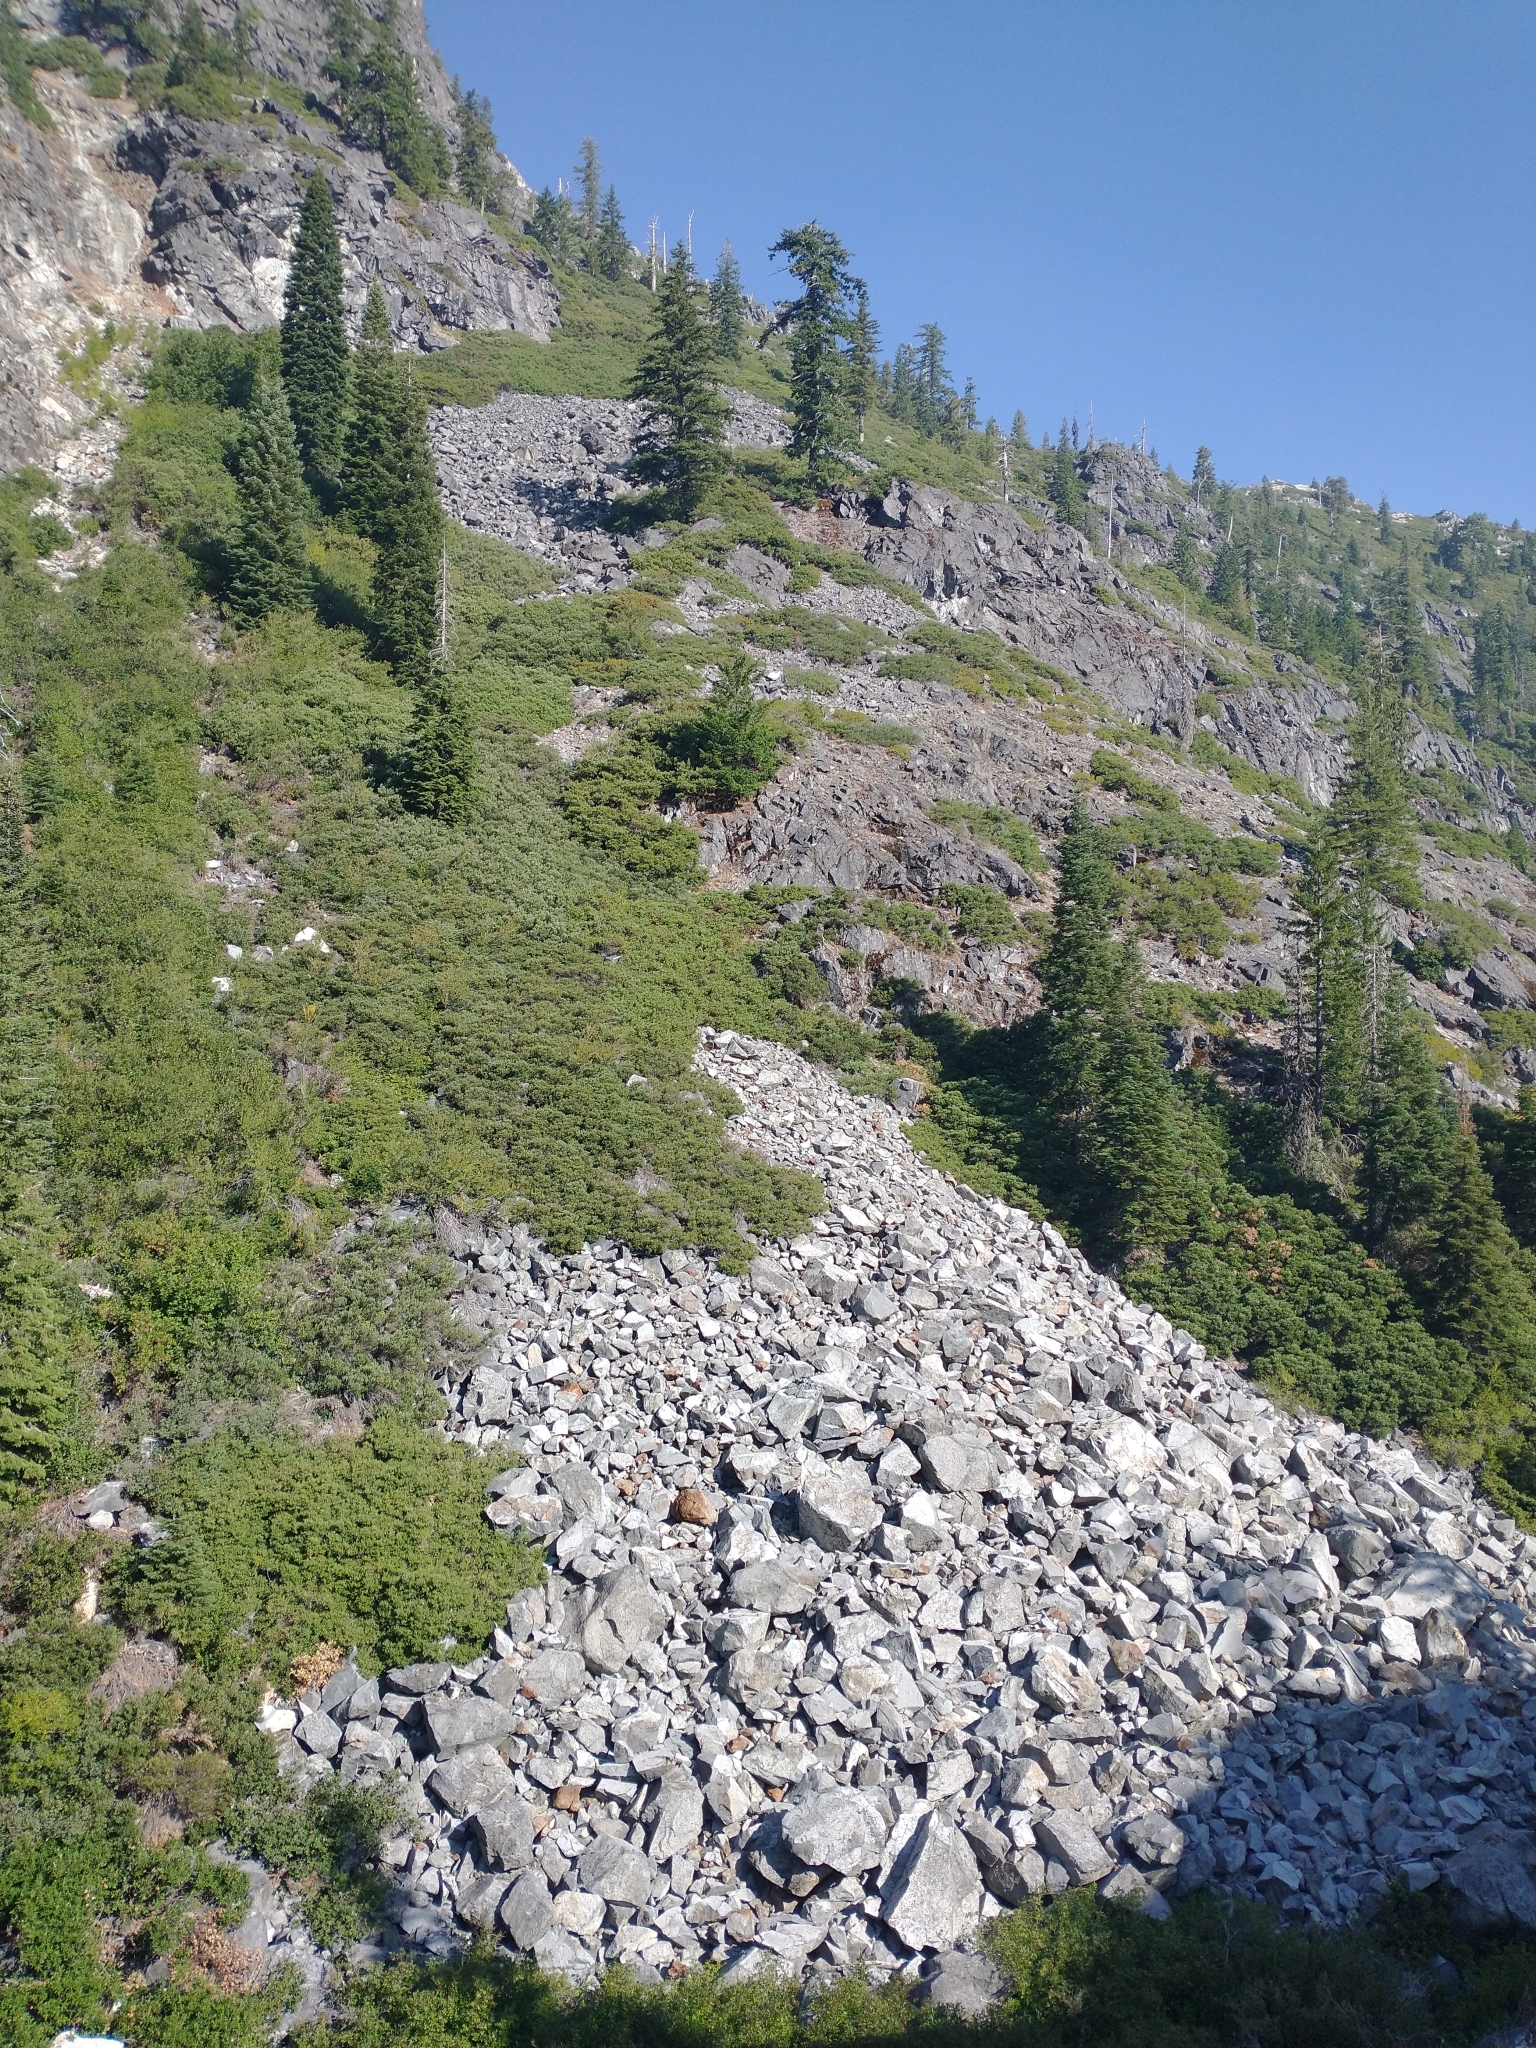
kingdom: Plantae
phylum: Tracheophyta
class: Magnoliopsida
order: Fagales
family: Fagaceae
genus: Quercus
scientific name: Quercus vacciniifolia
